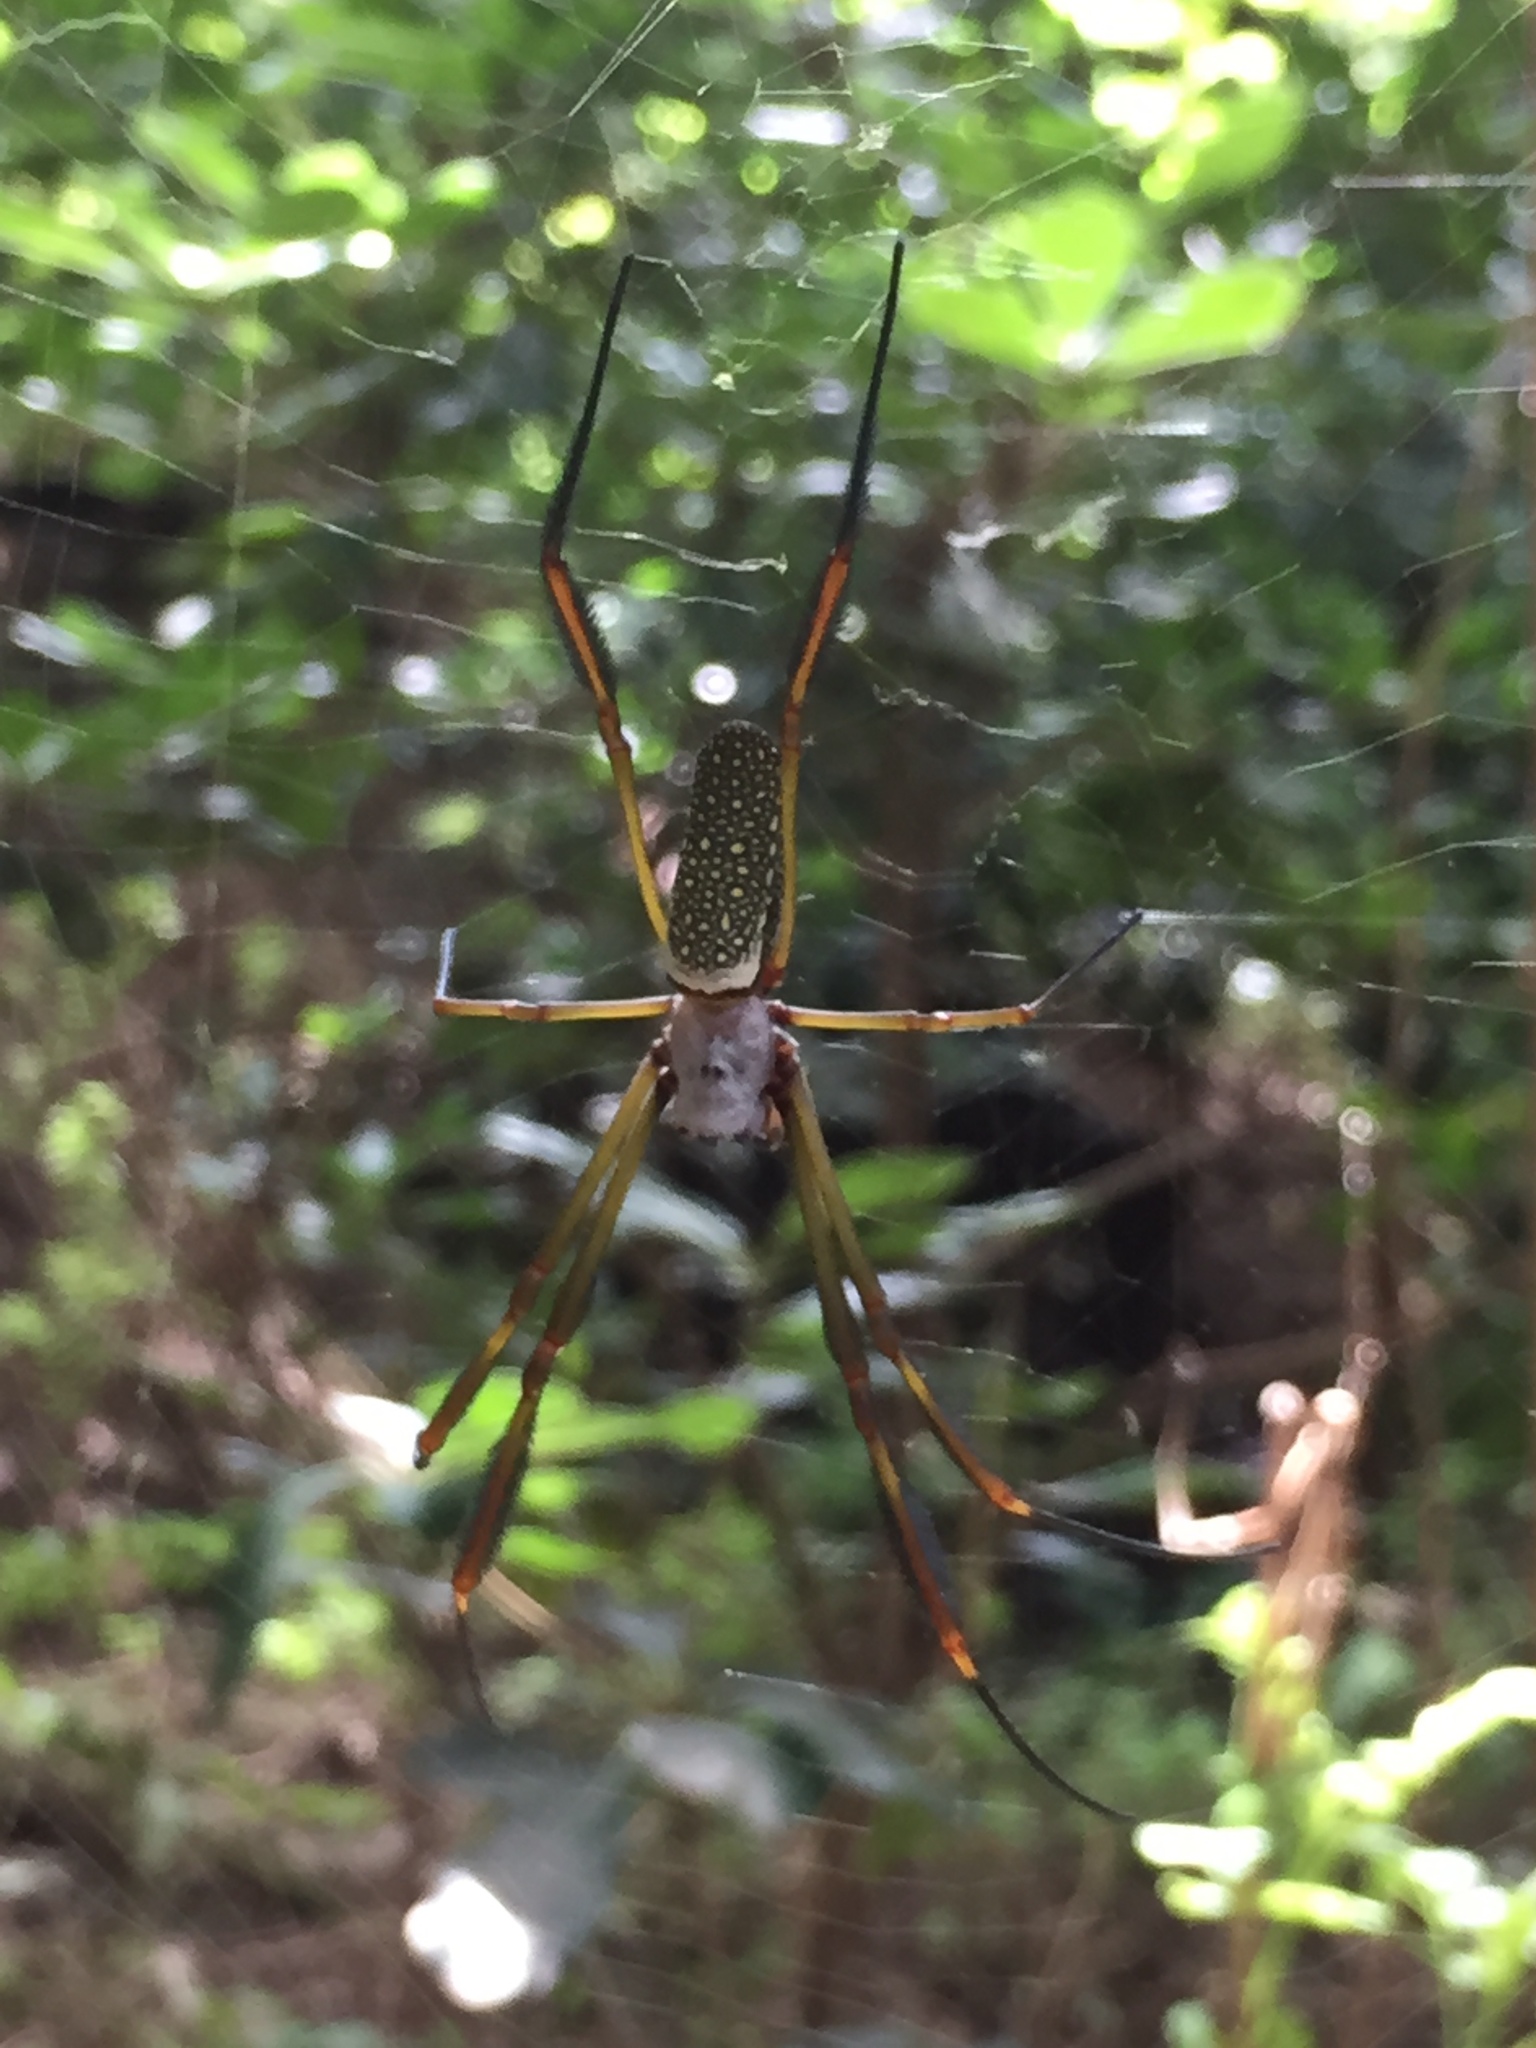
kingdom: Animalia
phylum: Arthropoda
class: Arachnida
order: Araneae
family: Araneidae
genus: Trichonephila
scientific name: Trichonephila clavipes
